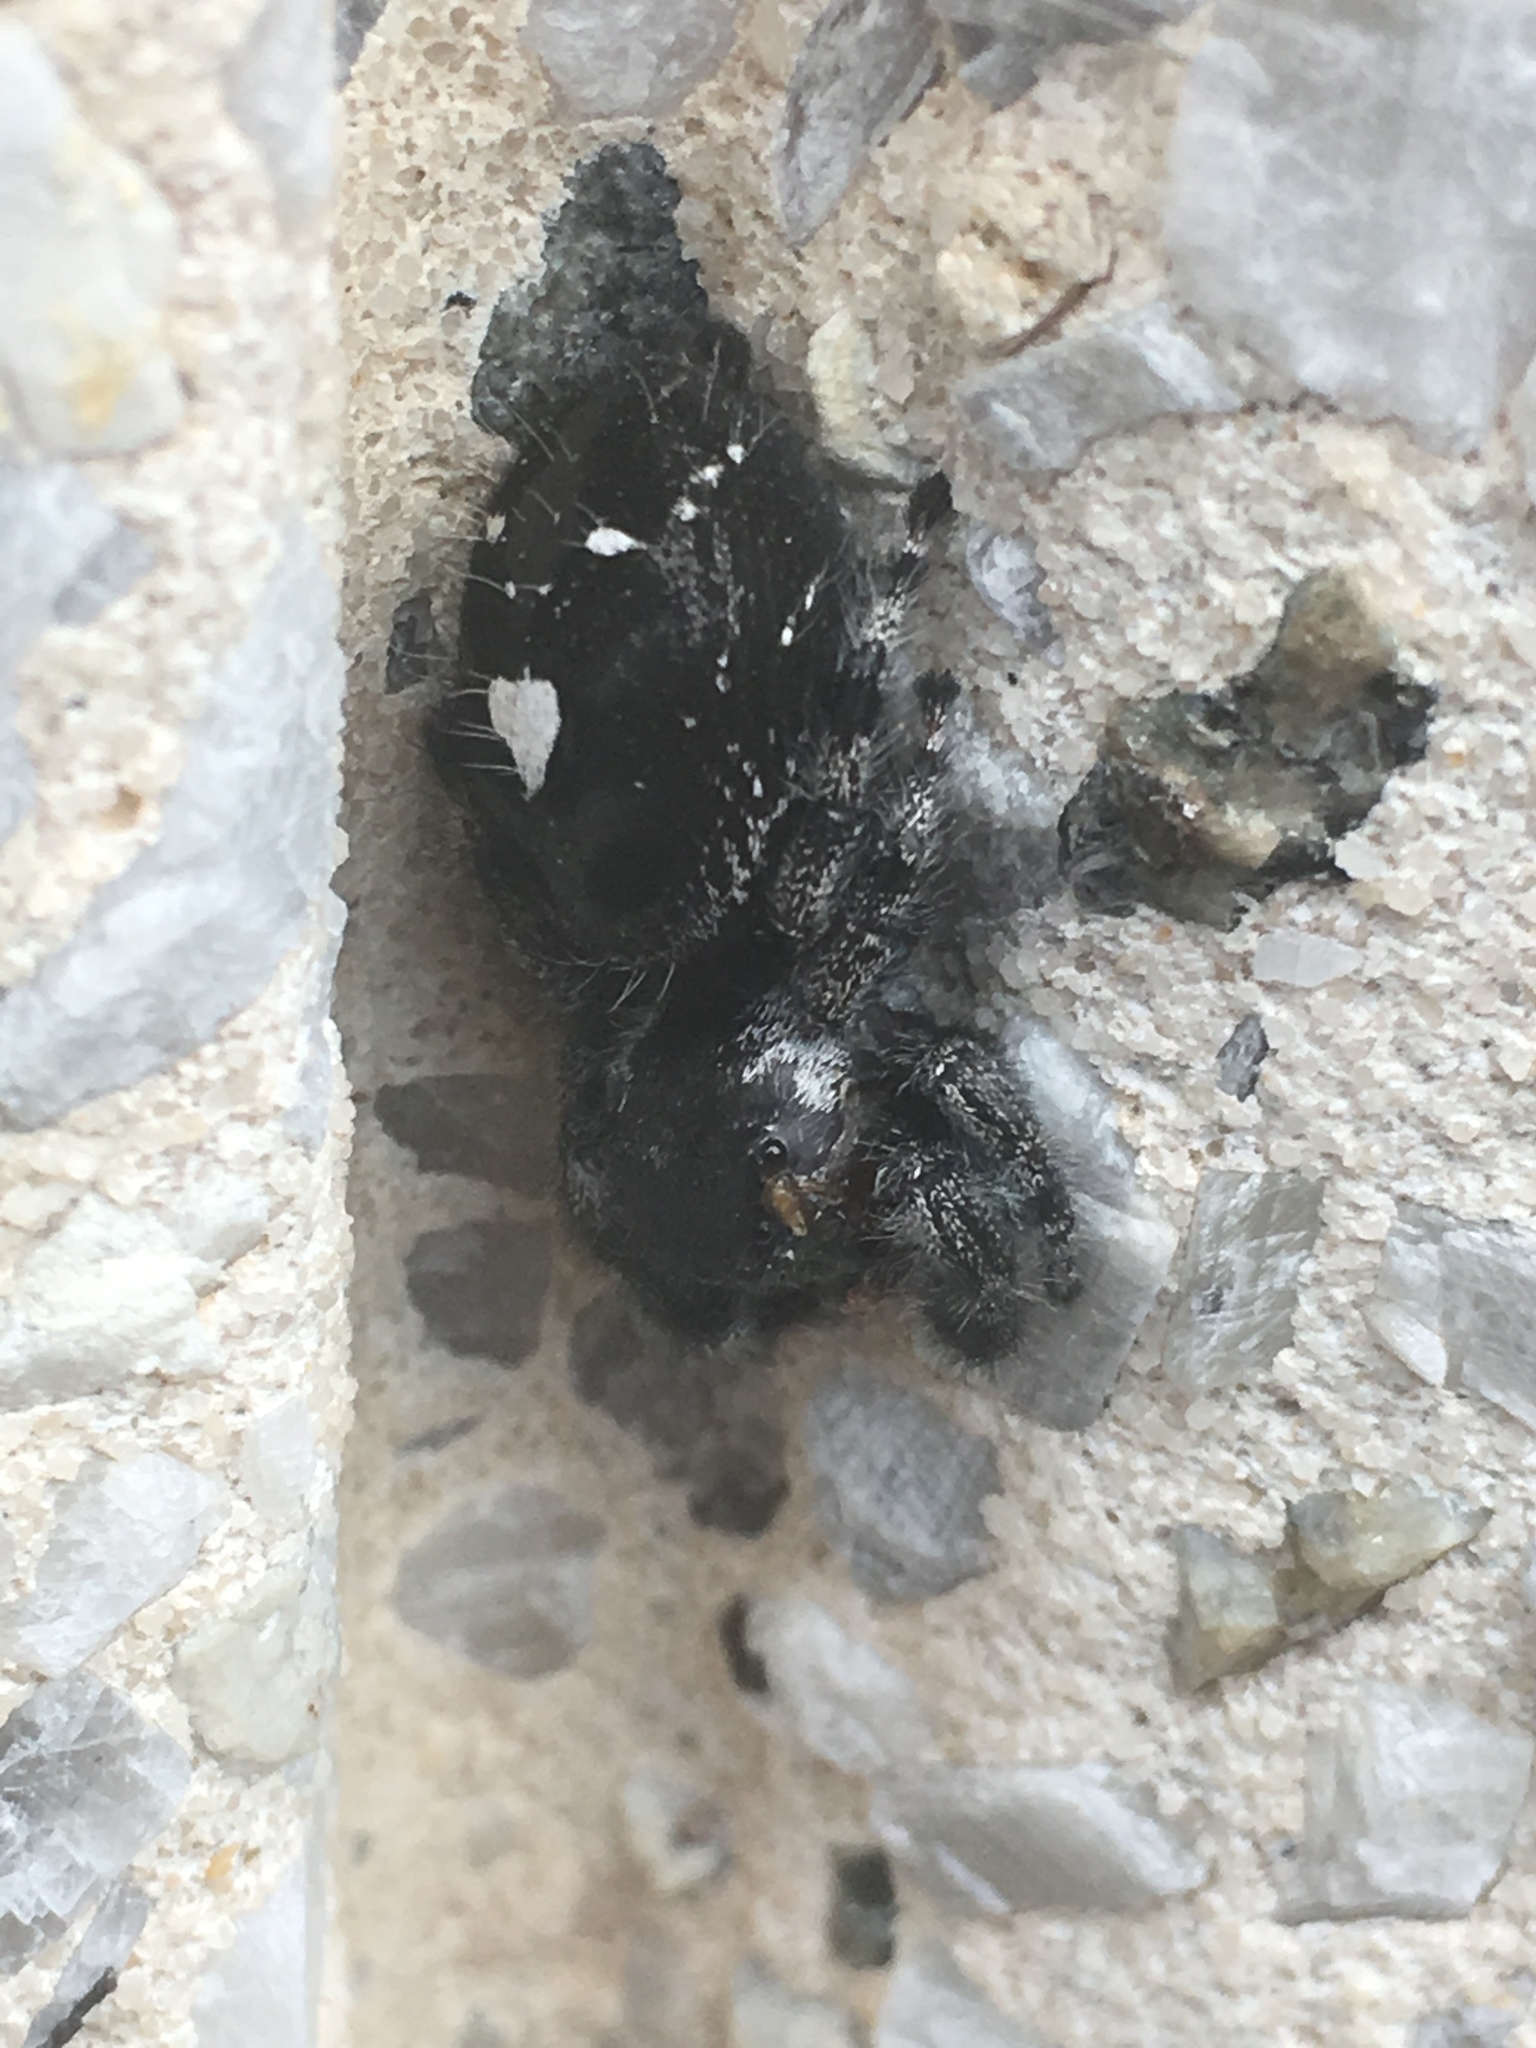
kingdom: Animalia
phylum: Arthropoda
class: Arachnida
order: Araneae
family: Salticidae
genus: Phidippus
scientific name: Phidippus audax
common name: Bold jumper
